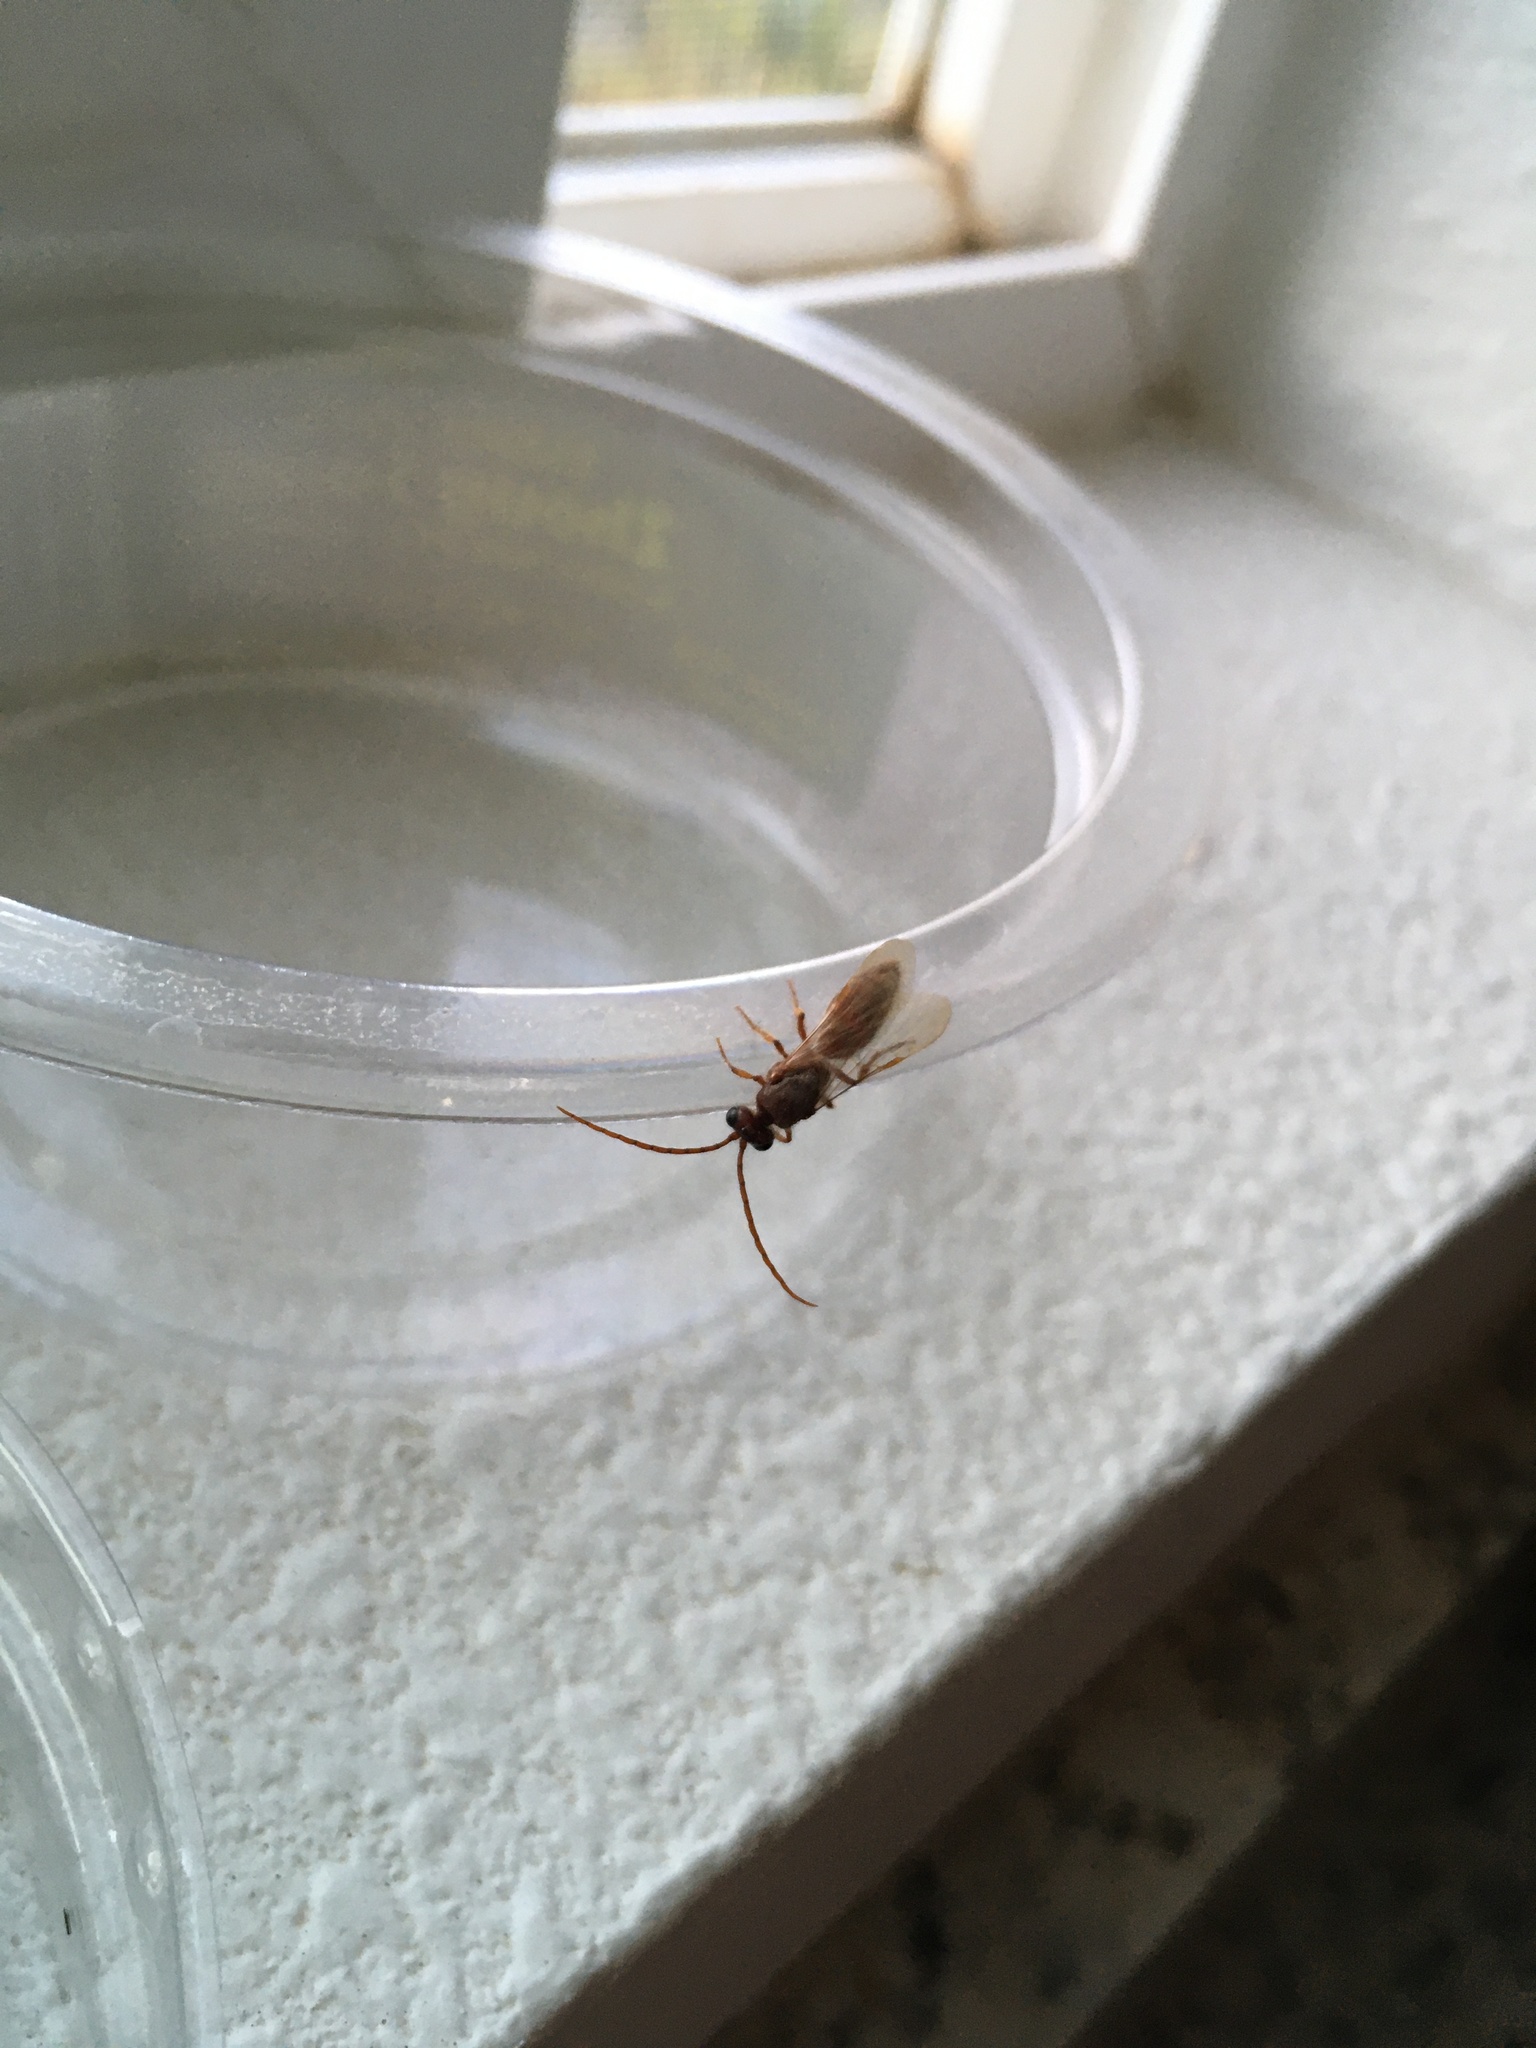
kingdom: Animalia
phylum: Arthropoda
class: Insecta
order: Hymenoptera
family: Tiphiidae
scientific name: Tiphiidae
